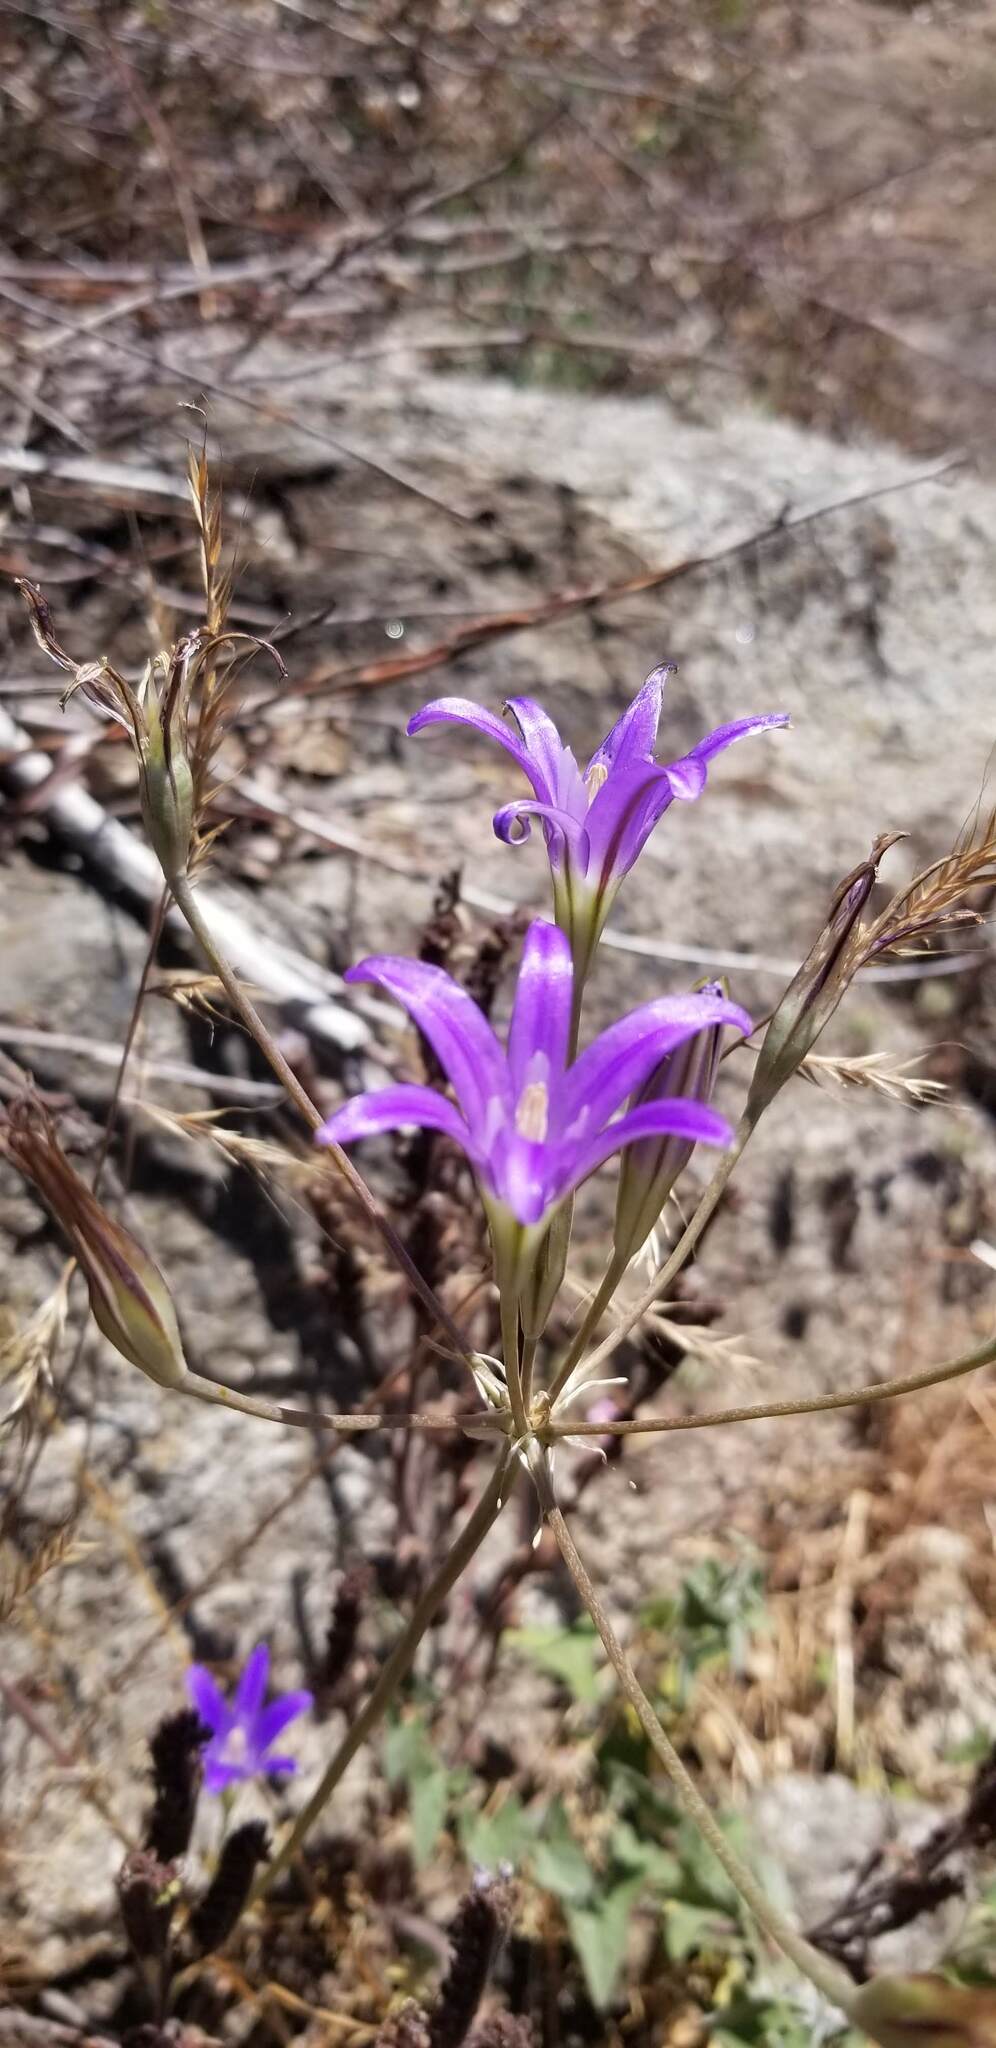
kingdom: Plantae
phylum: Tracheophyta
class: Liliopsida
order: Asparagales
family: Asparagaceae
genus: Brodiaea
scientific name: Brodiaea elegans
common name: Elegant cluster-lily
